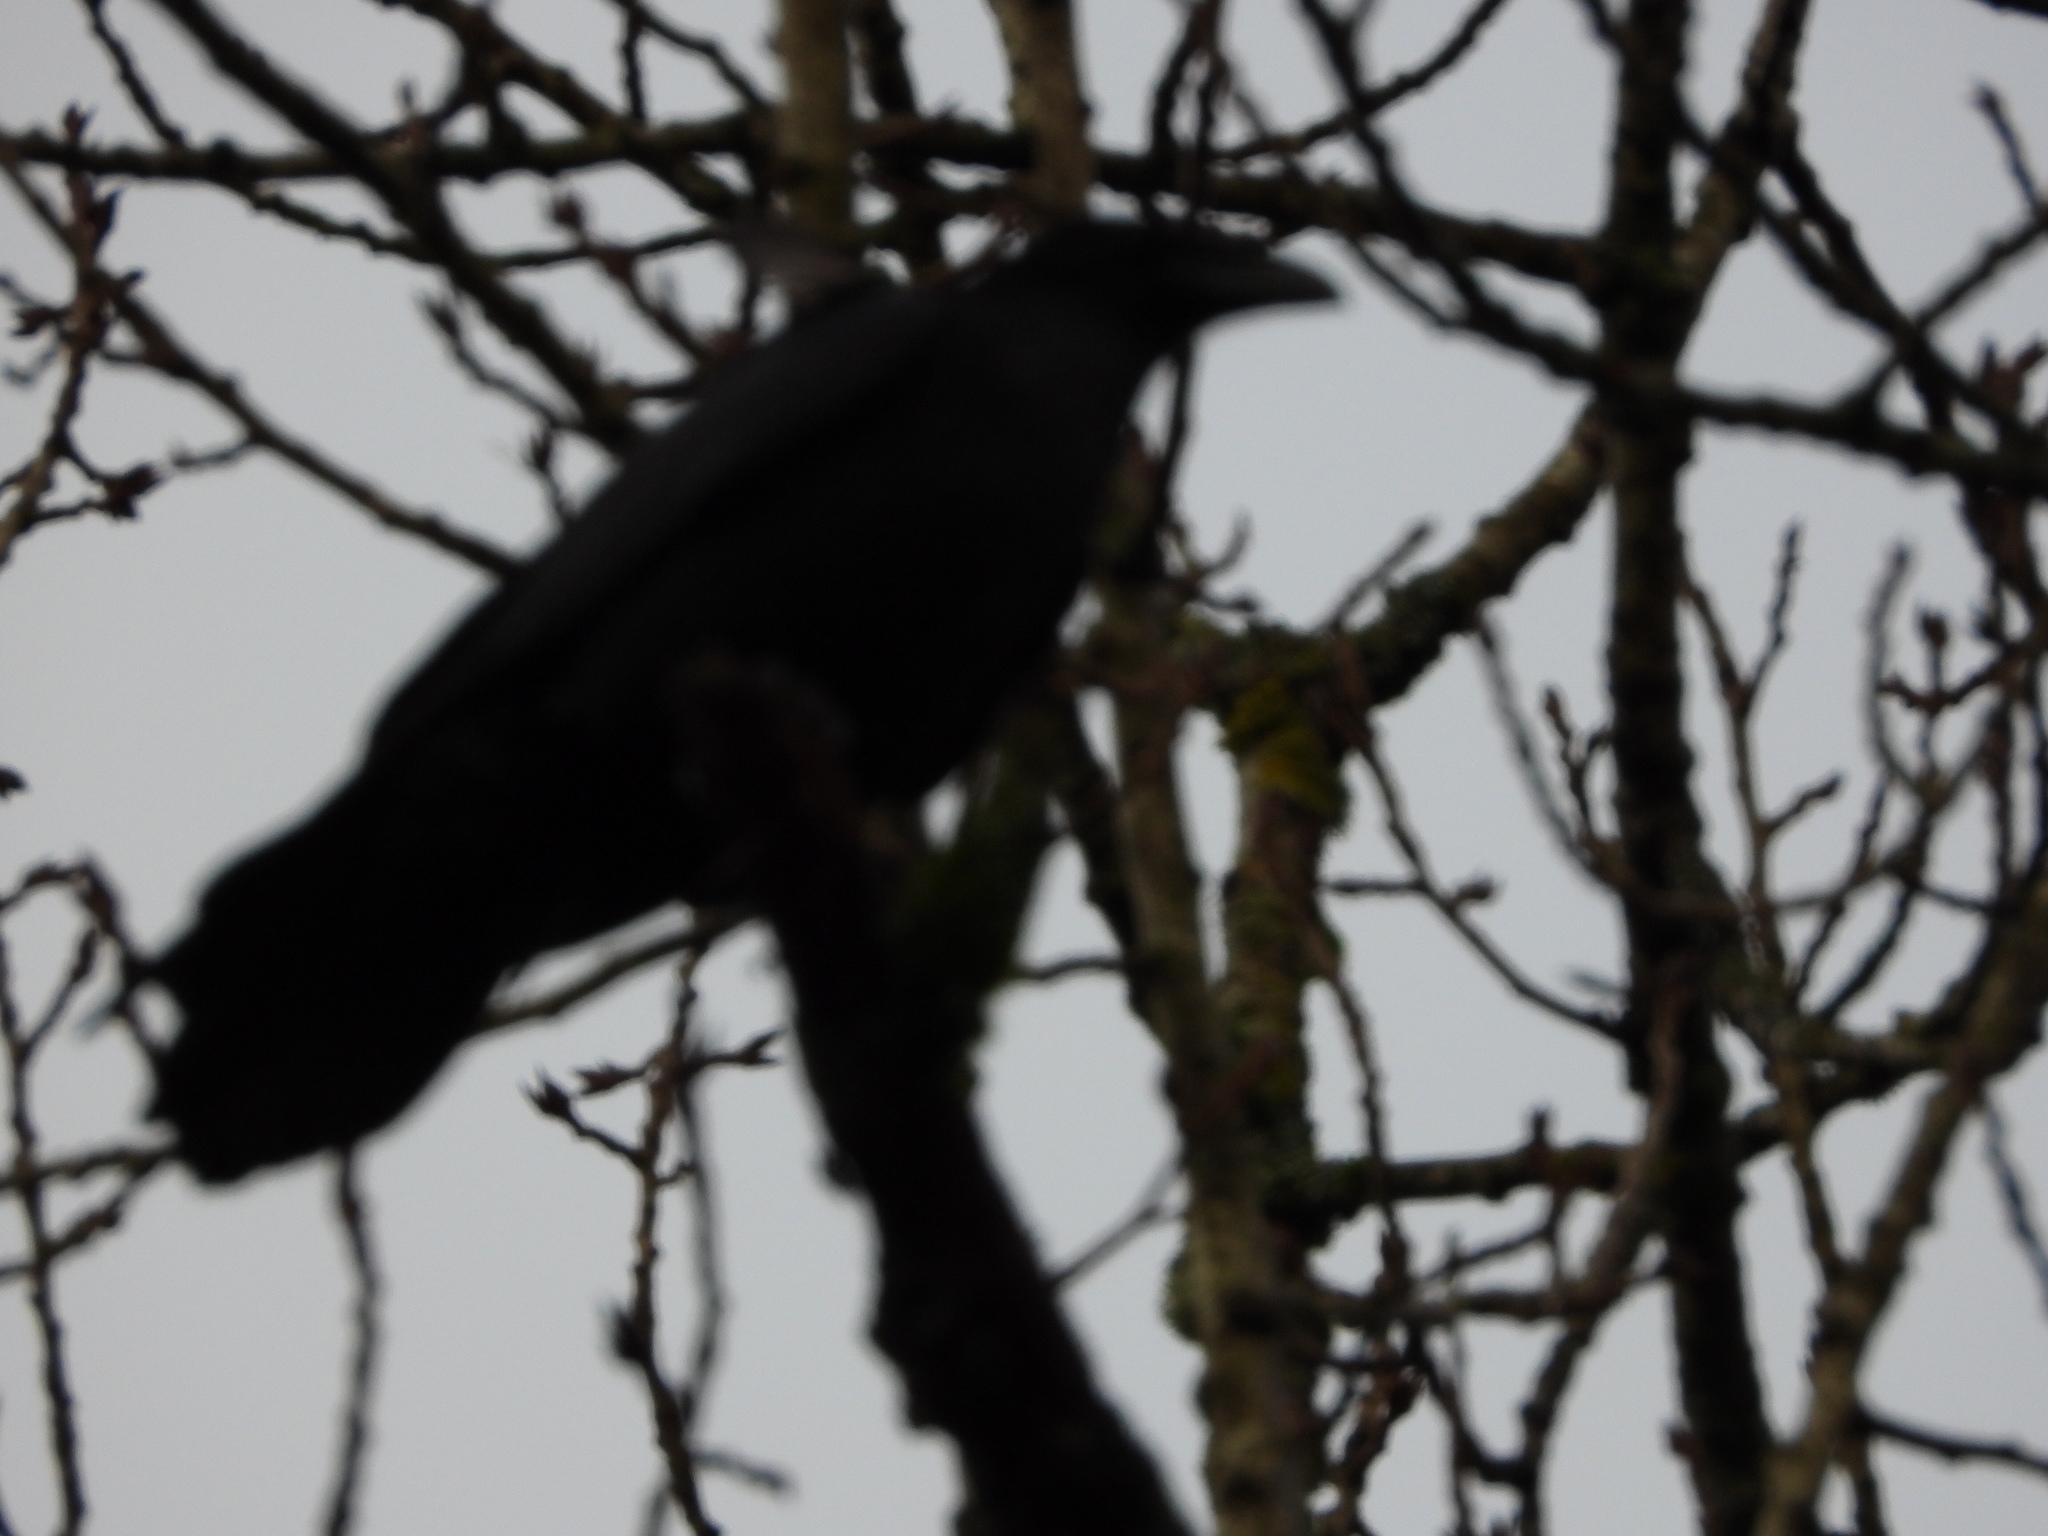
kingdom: Animalia
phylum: Chordata
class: Aves
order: Passeriformes
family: Corvidae
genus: Corvus
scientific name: Corvus corax
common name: Common raven
